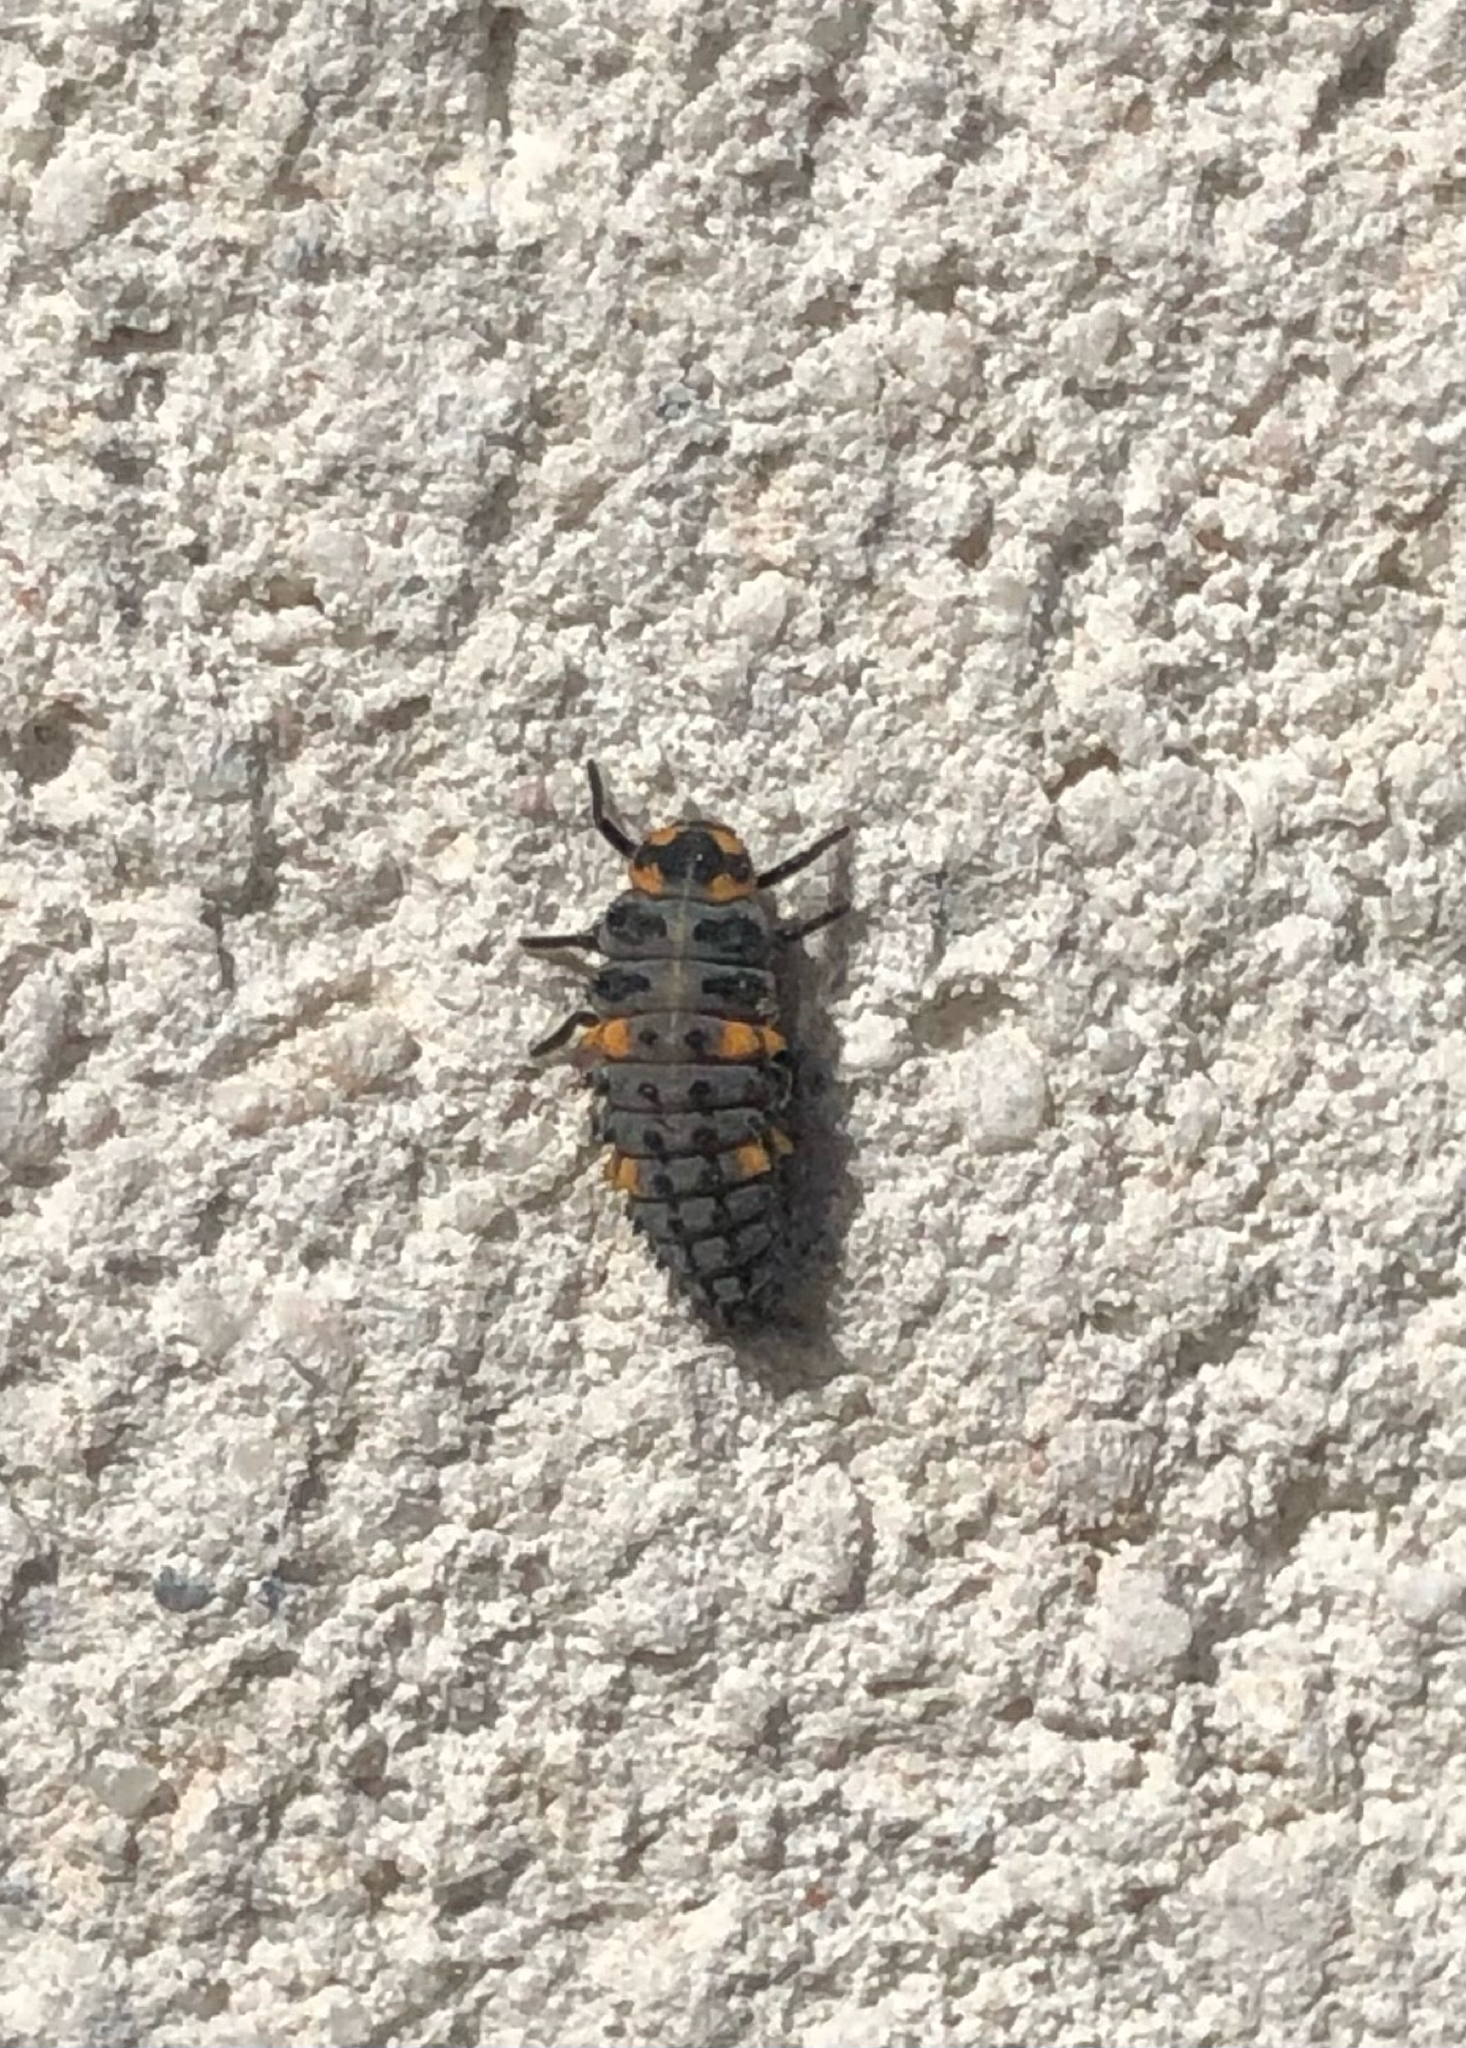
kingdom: Animalia
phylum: Arthropoda
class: Insecta
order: Coleoptera
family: Coccinellidae
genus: Coccinella
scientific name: Coccinella septempunctata
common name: Sevenspotted lady beetle
